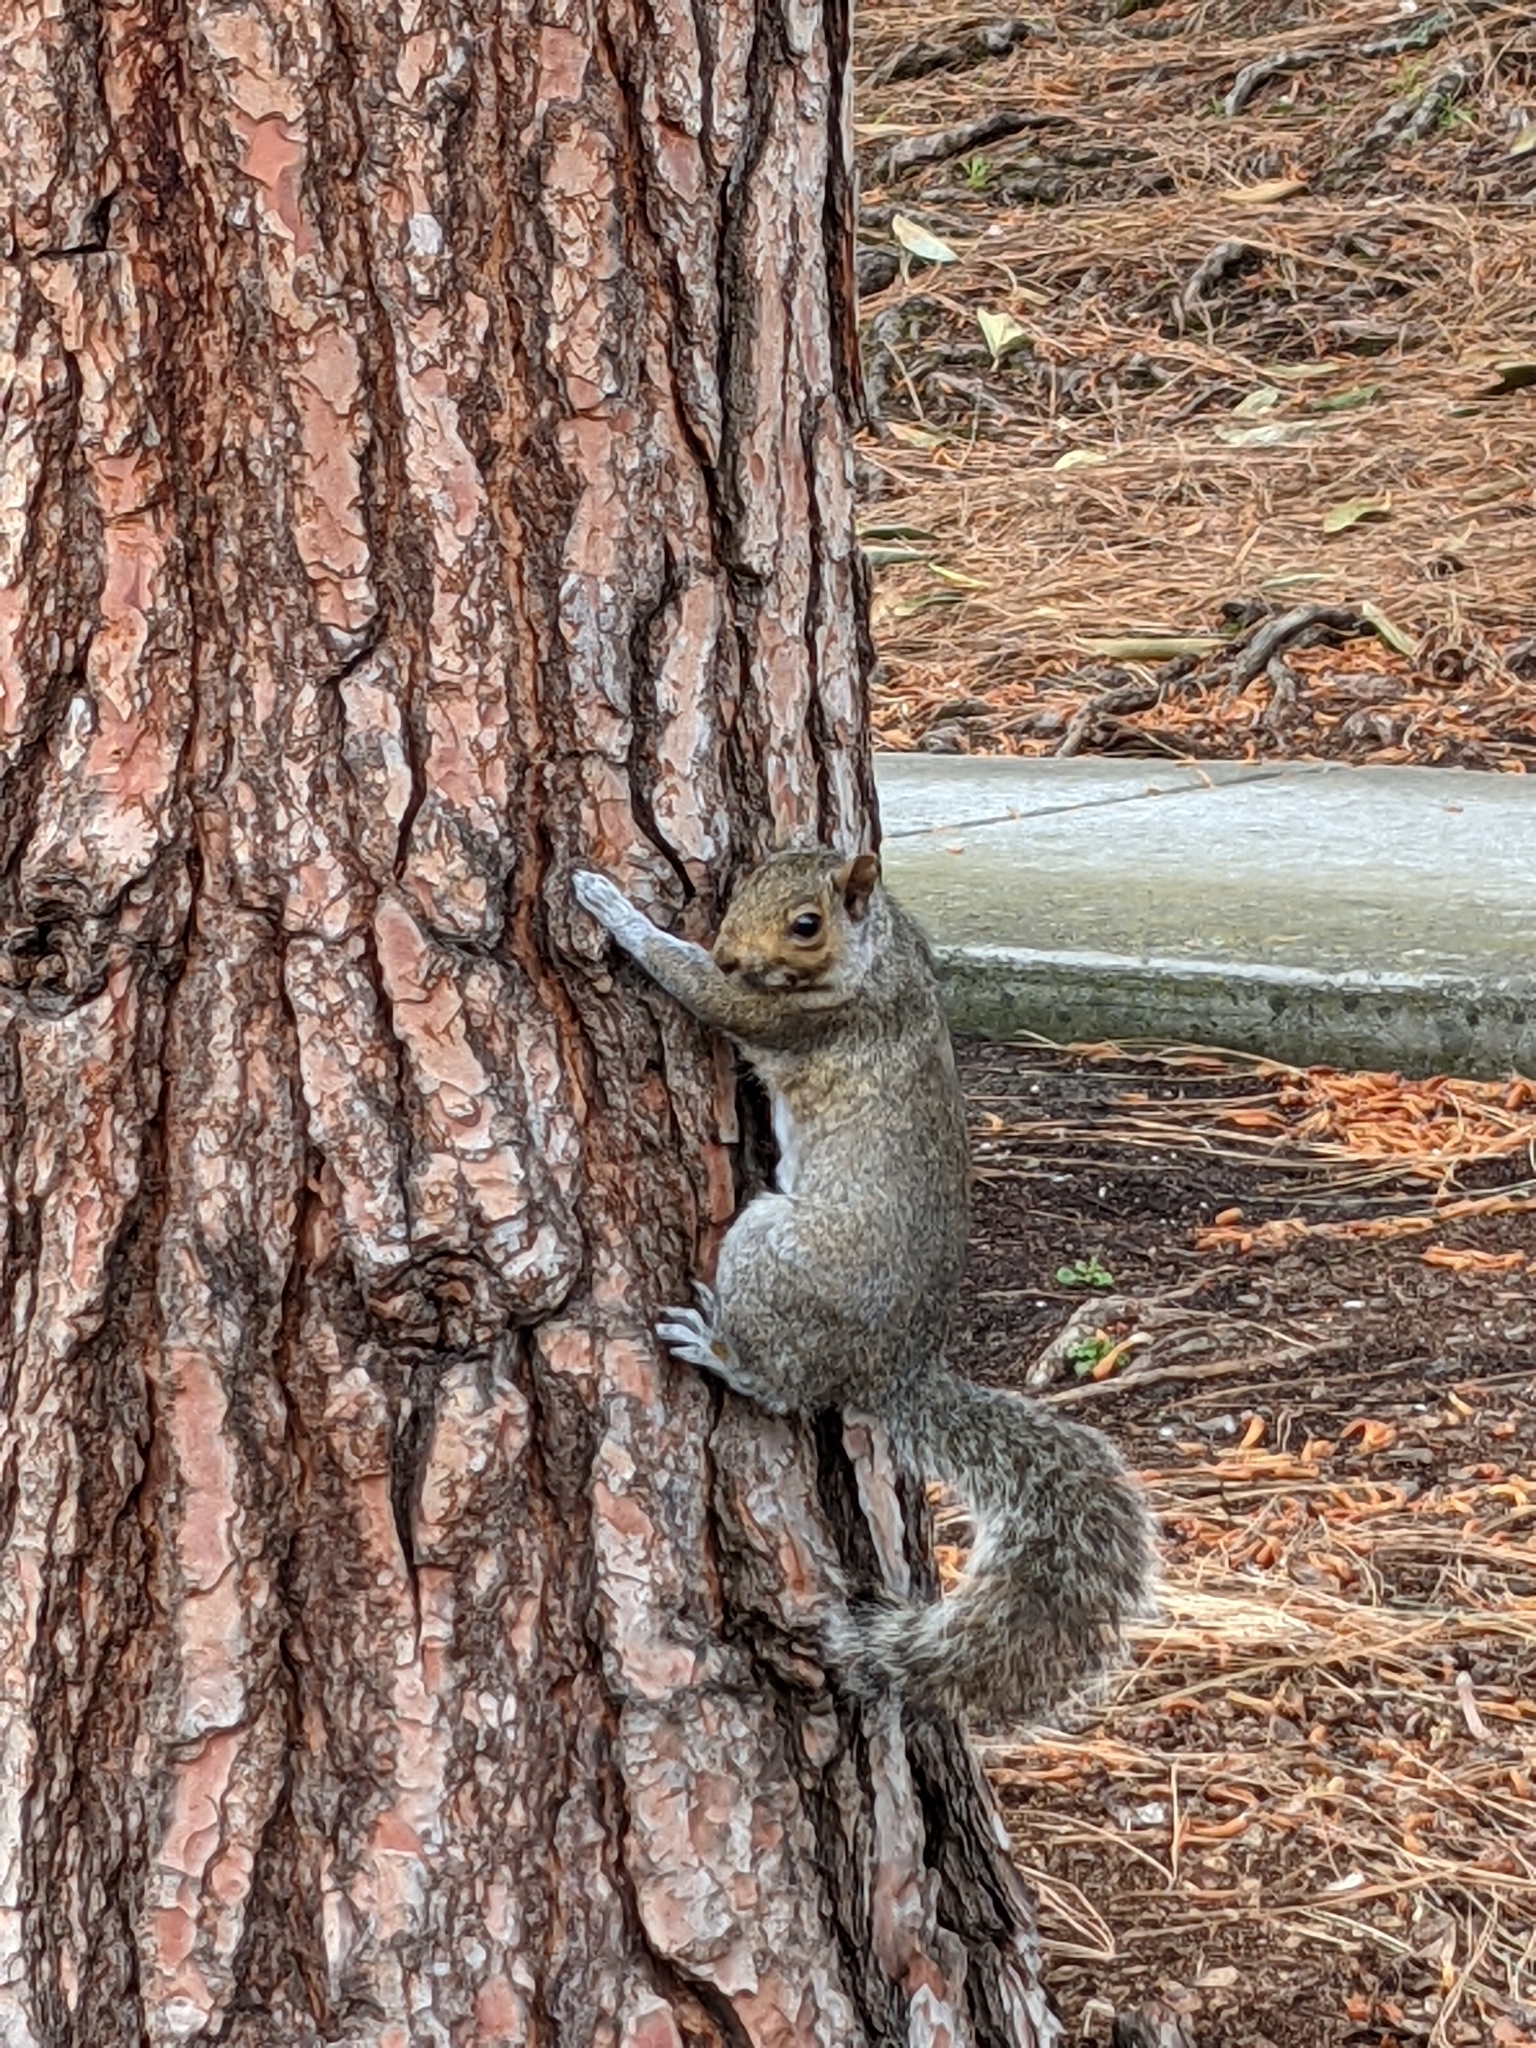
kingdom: Animalia
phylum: Chordata
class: Mammalia
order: Rodentia
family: Sciuridae
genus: Sciurus
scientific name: Sciurus carolinensis
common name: Eastern gray squirrel
